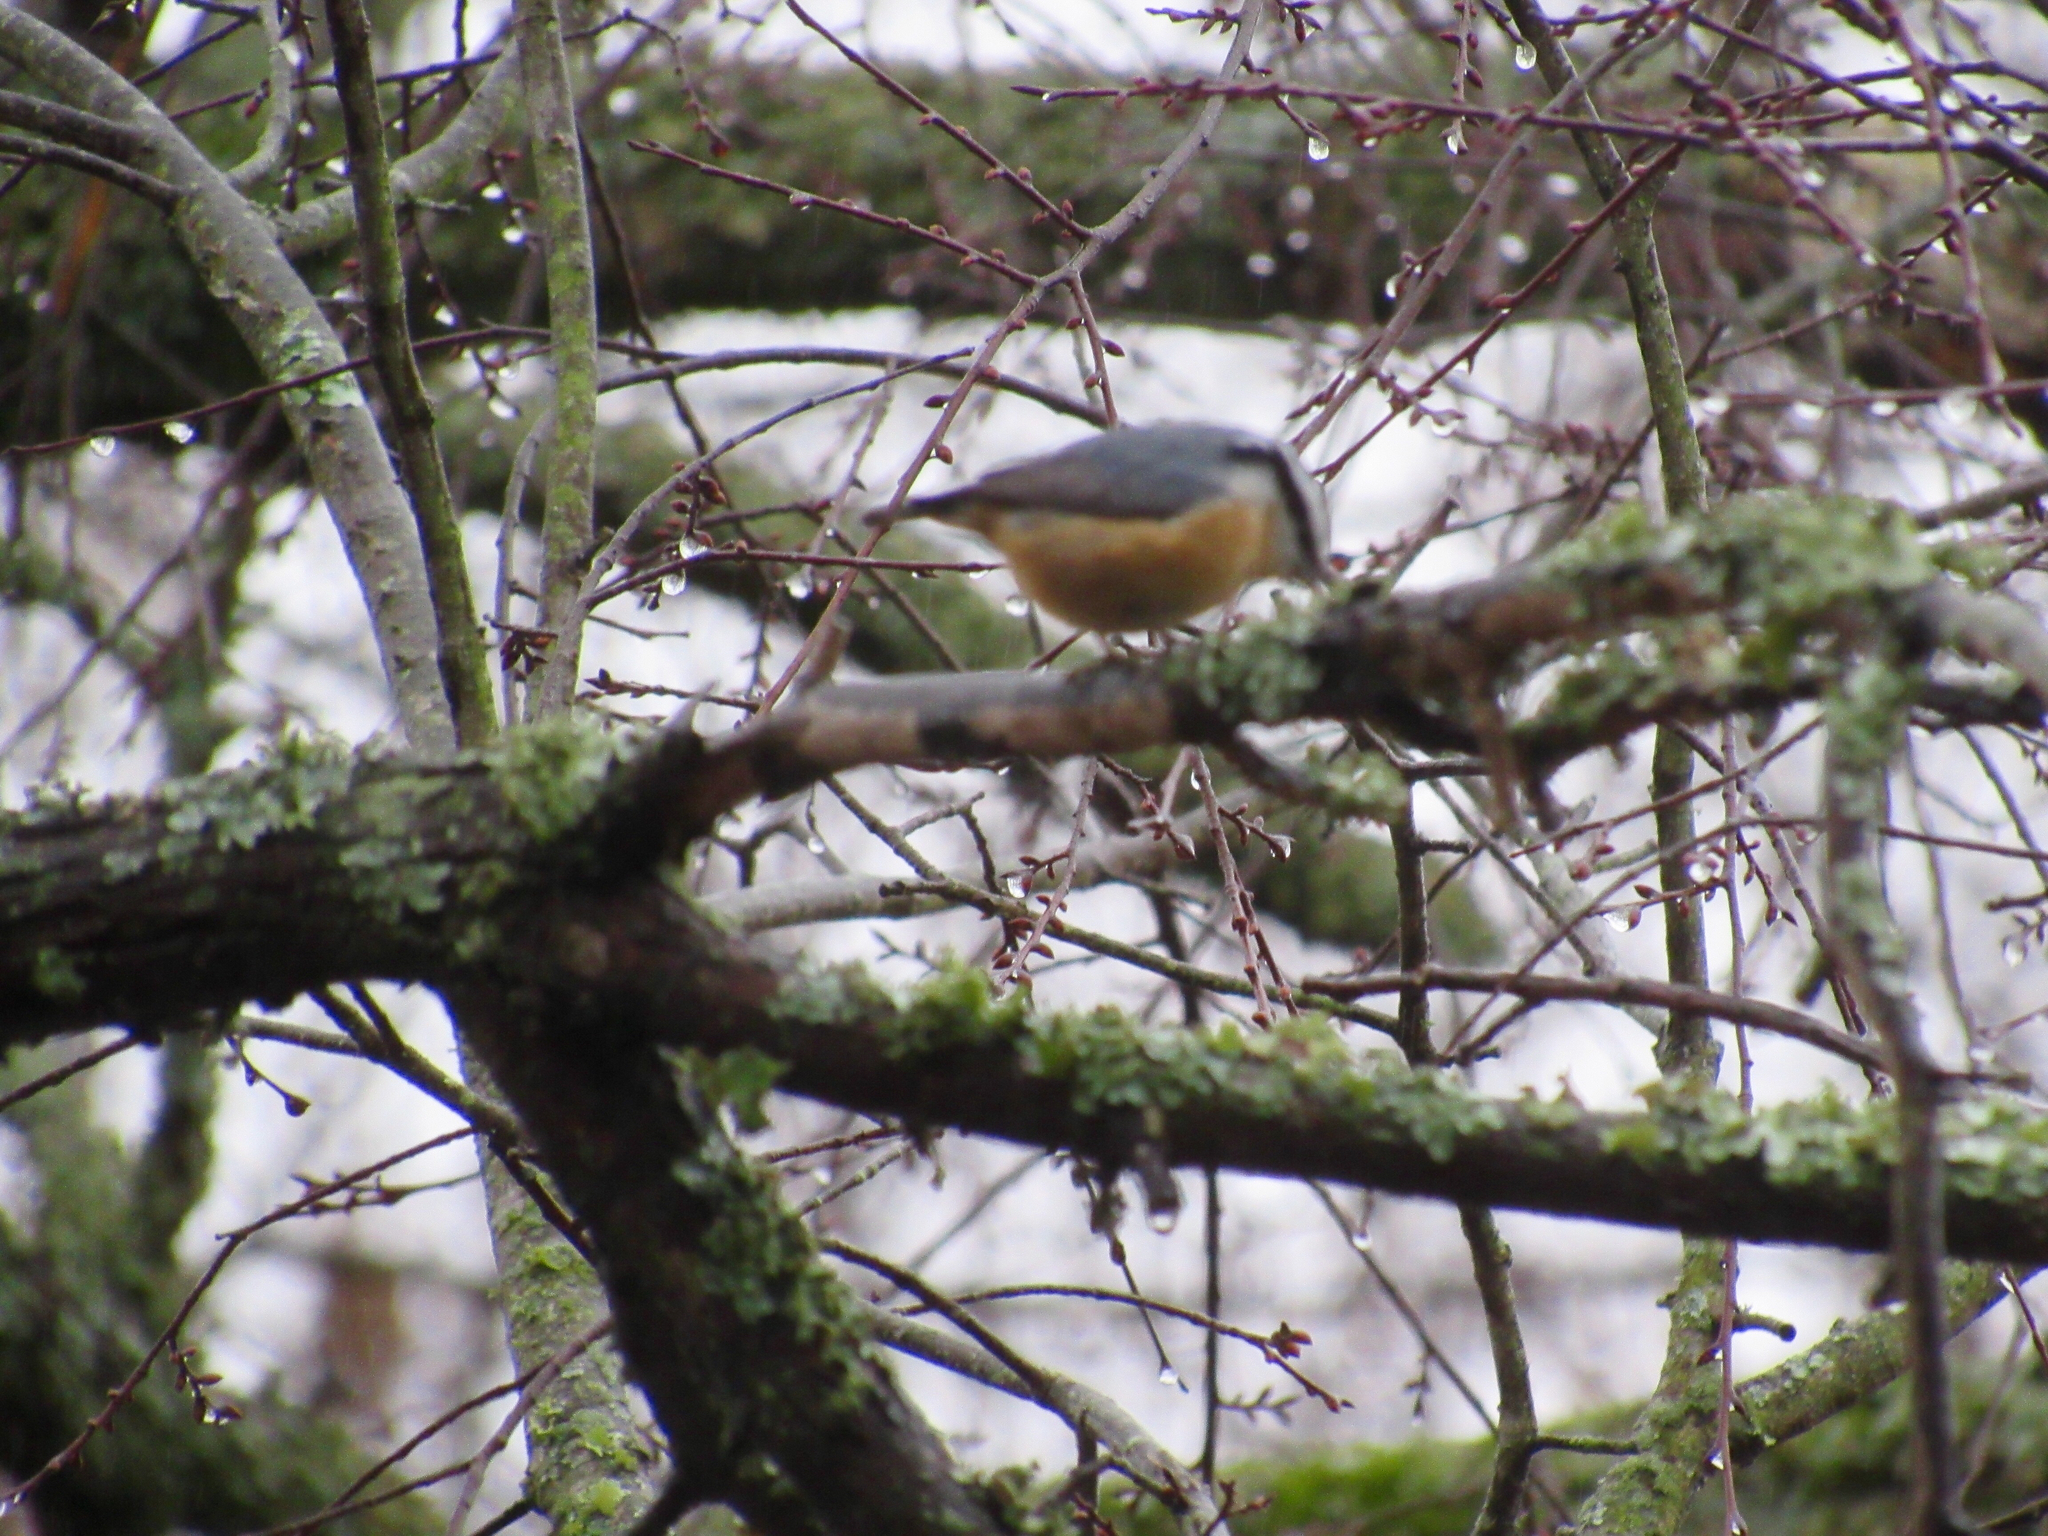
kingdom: Animalia
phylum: Chordata
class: Aves
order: Passeriformes
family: Sittidae
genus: Sitta
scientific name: Sitta canadensis
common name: Red-breasted nuthatch
